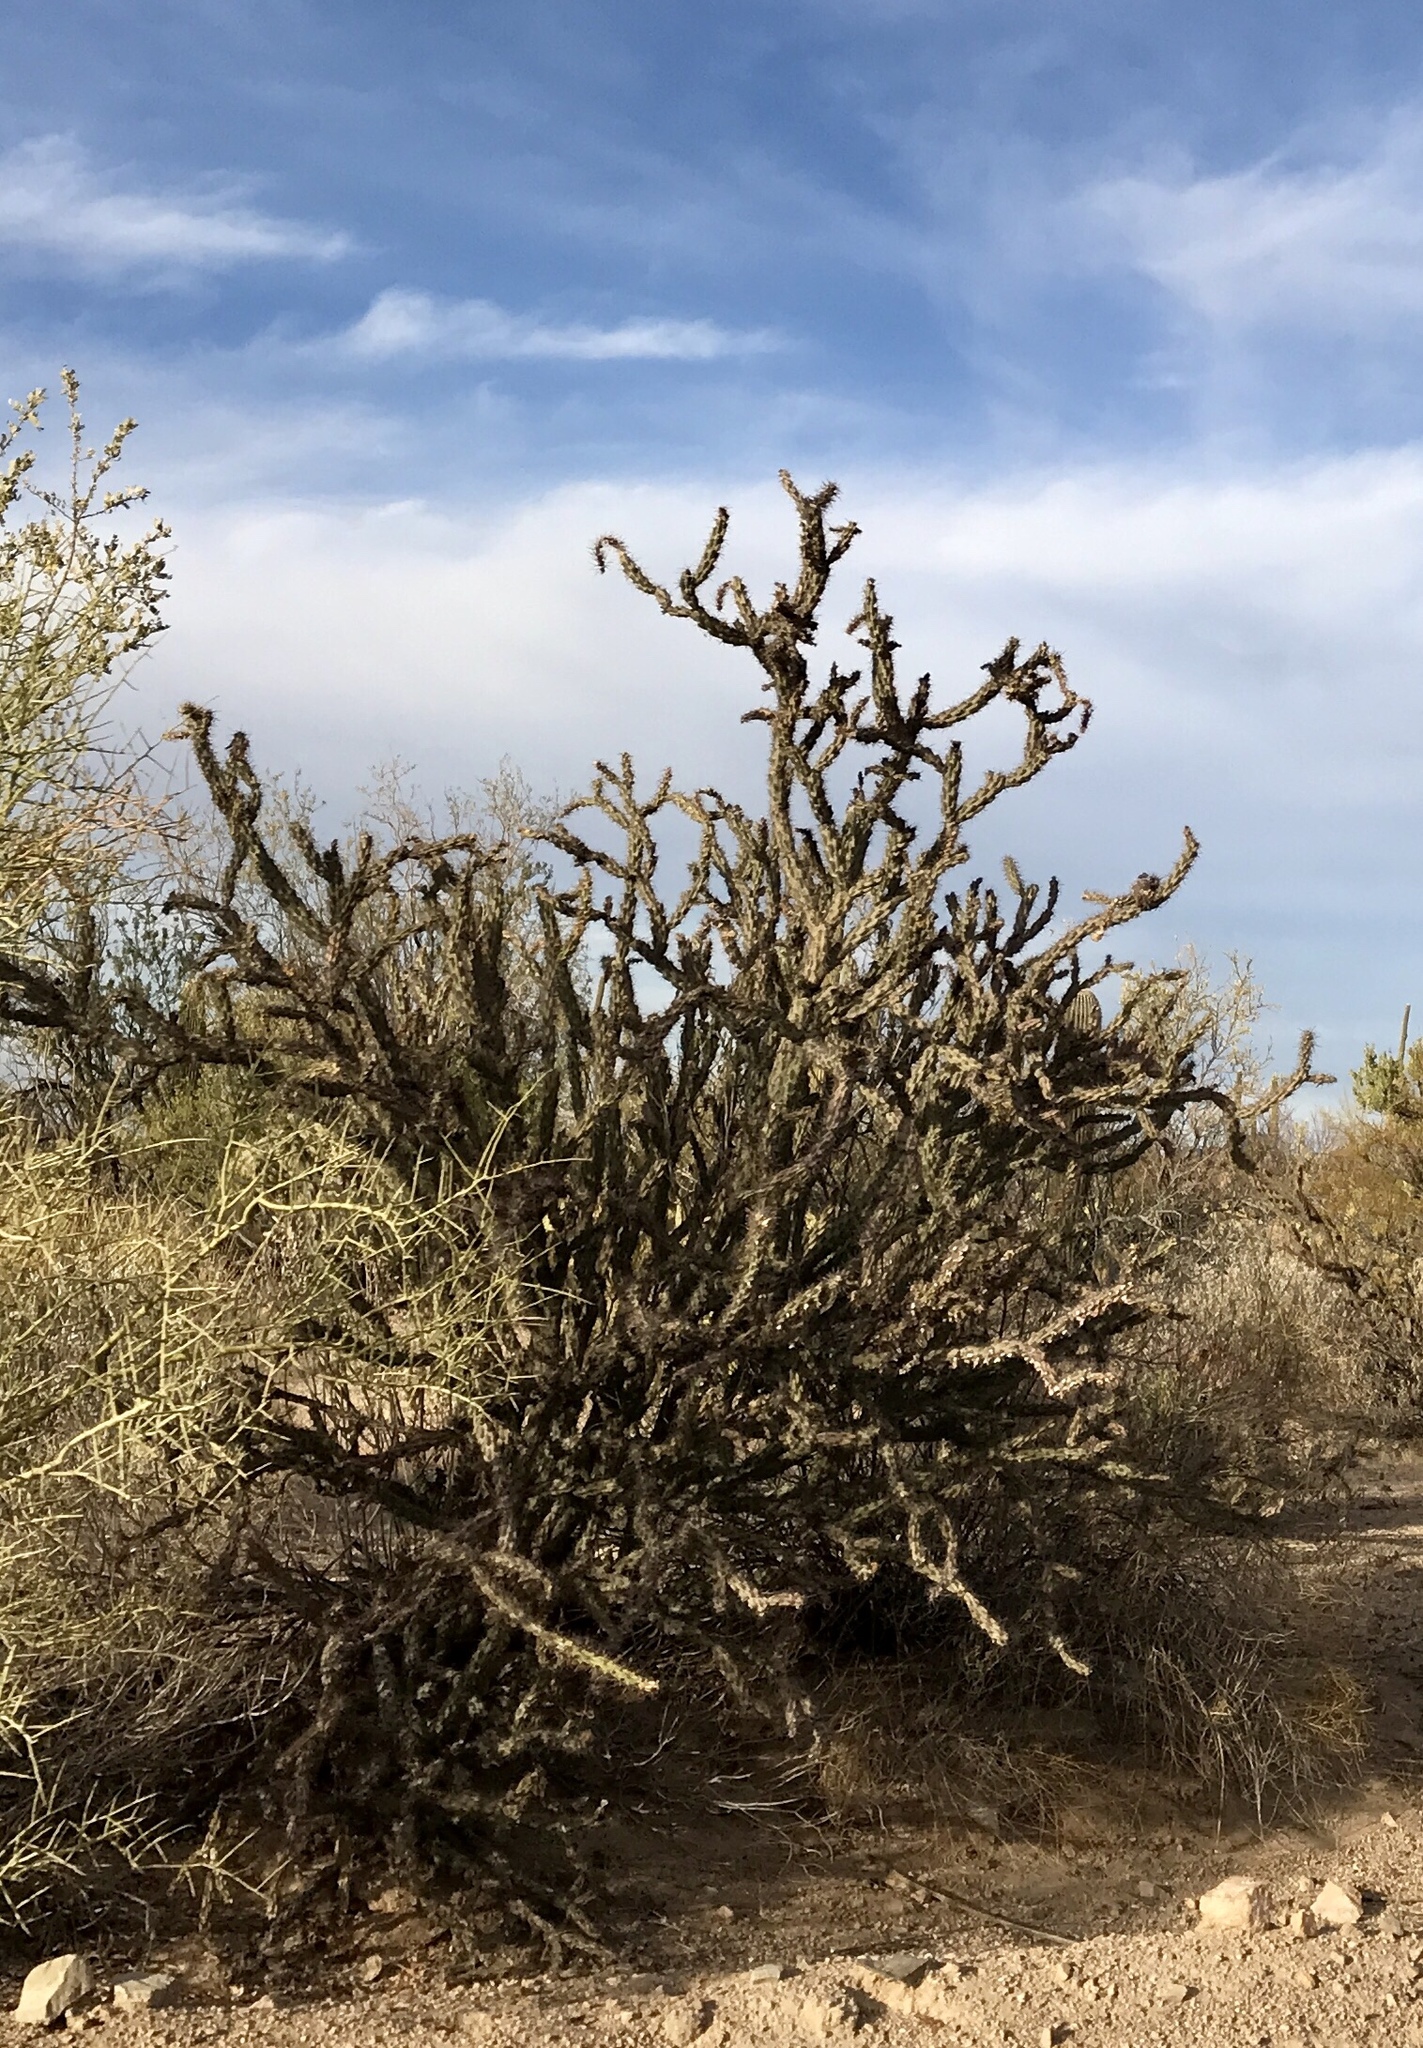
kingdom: Plantae
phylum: Tracheophyta
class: Magnoliopsida
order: Caryophyllales
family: Cactaceae
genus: Cylindropuntia
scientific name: Cylindropuntia acanthocarpa
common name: Buckhorn cholla
